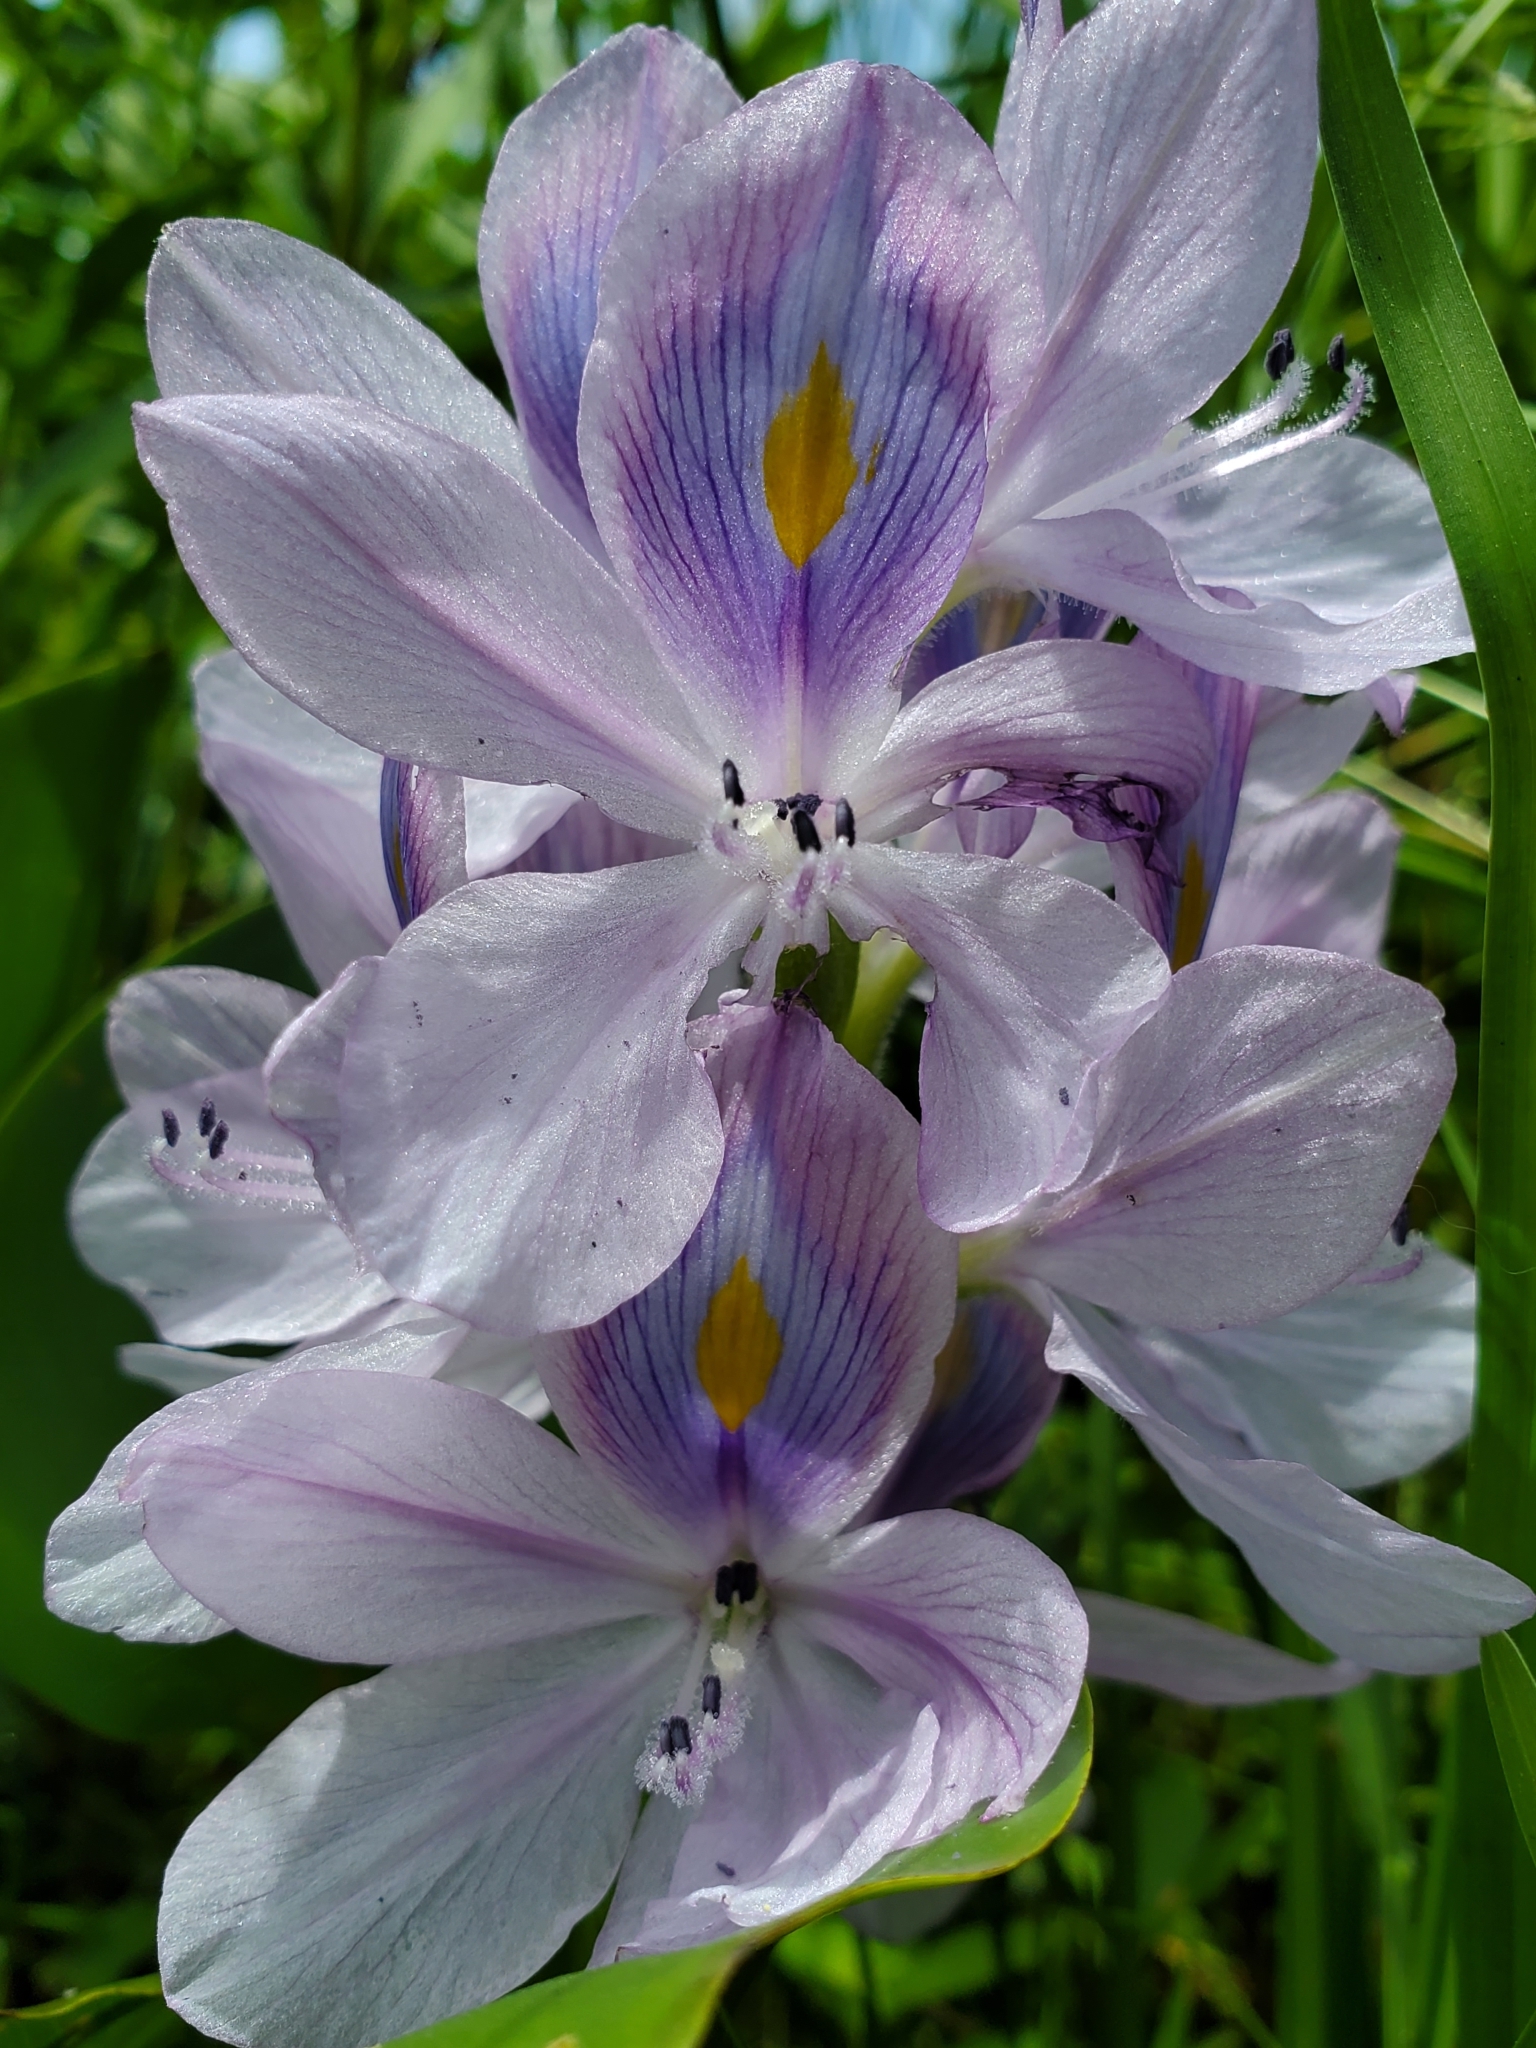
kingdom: Plantae
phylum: Tracheophyta
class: Liliopsida
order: Commelinales
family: Pontederiaceae
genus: Pontederia
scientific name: Pontederia crassipes
